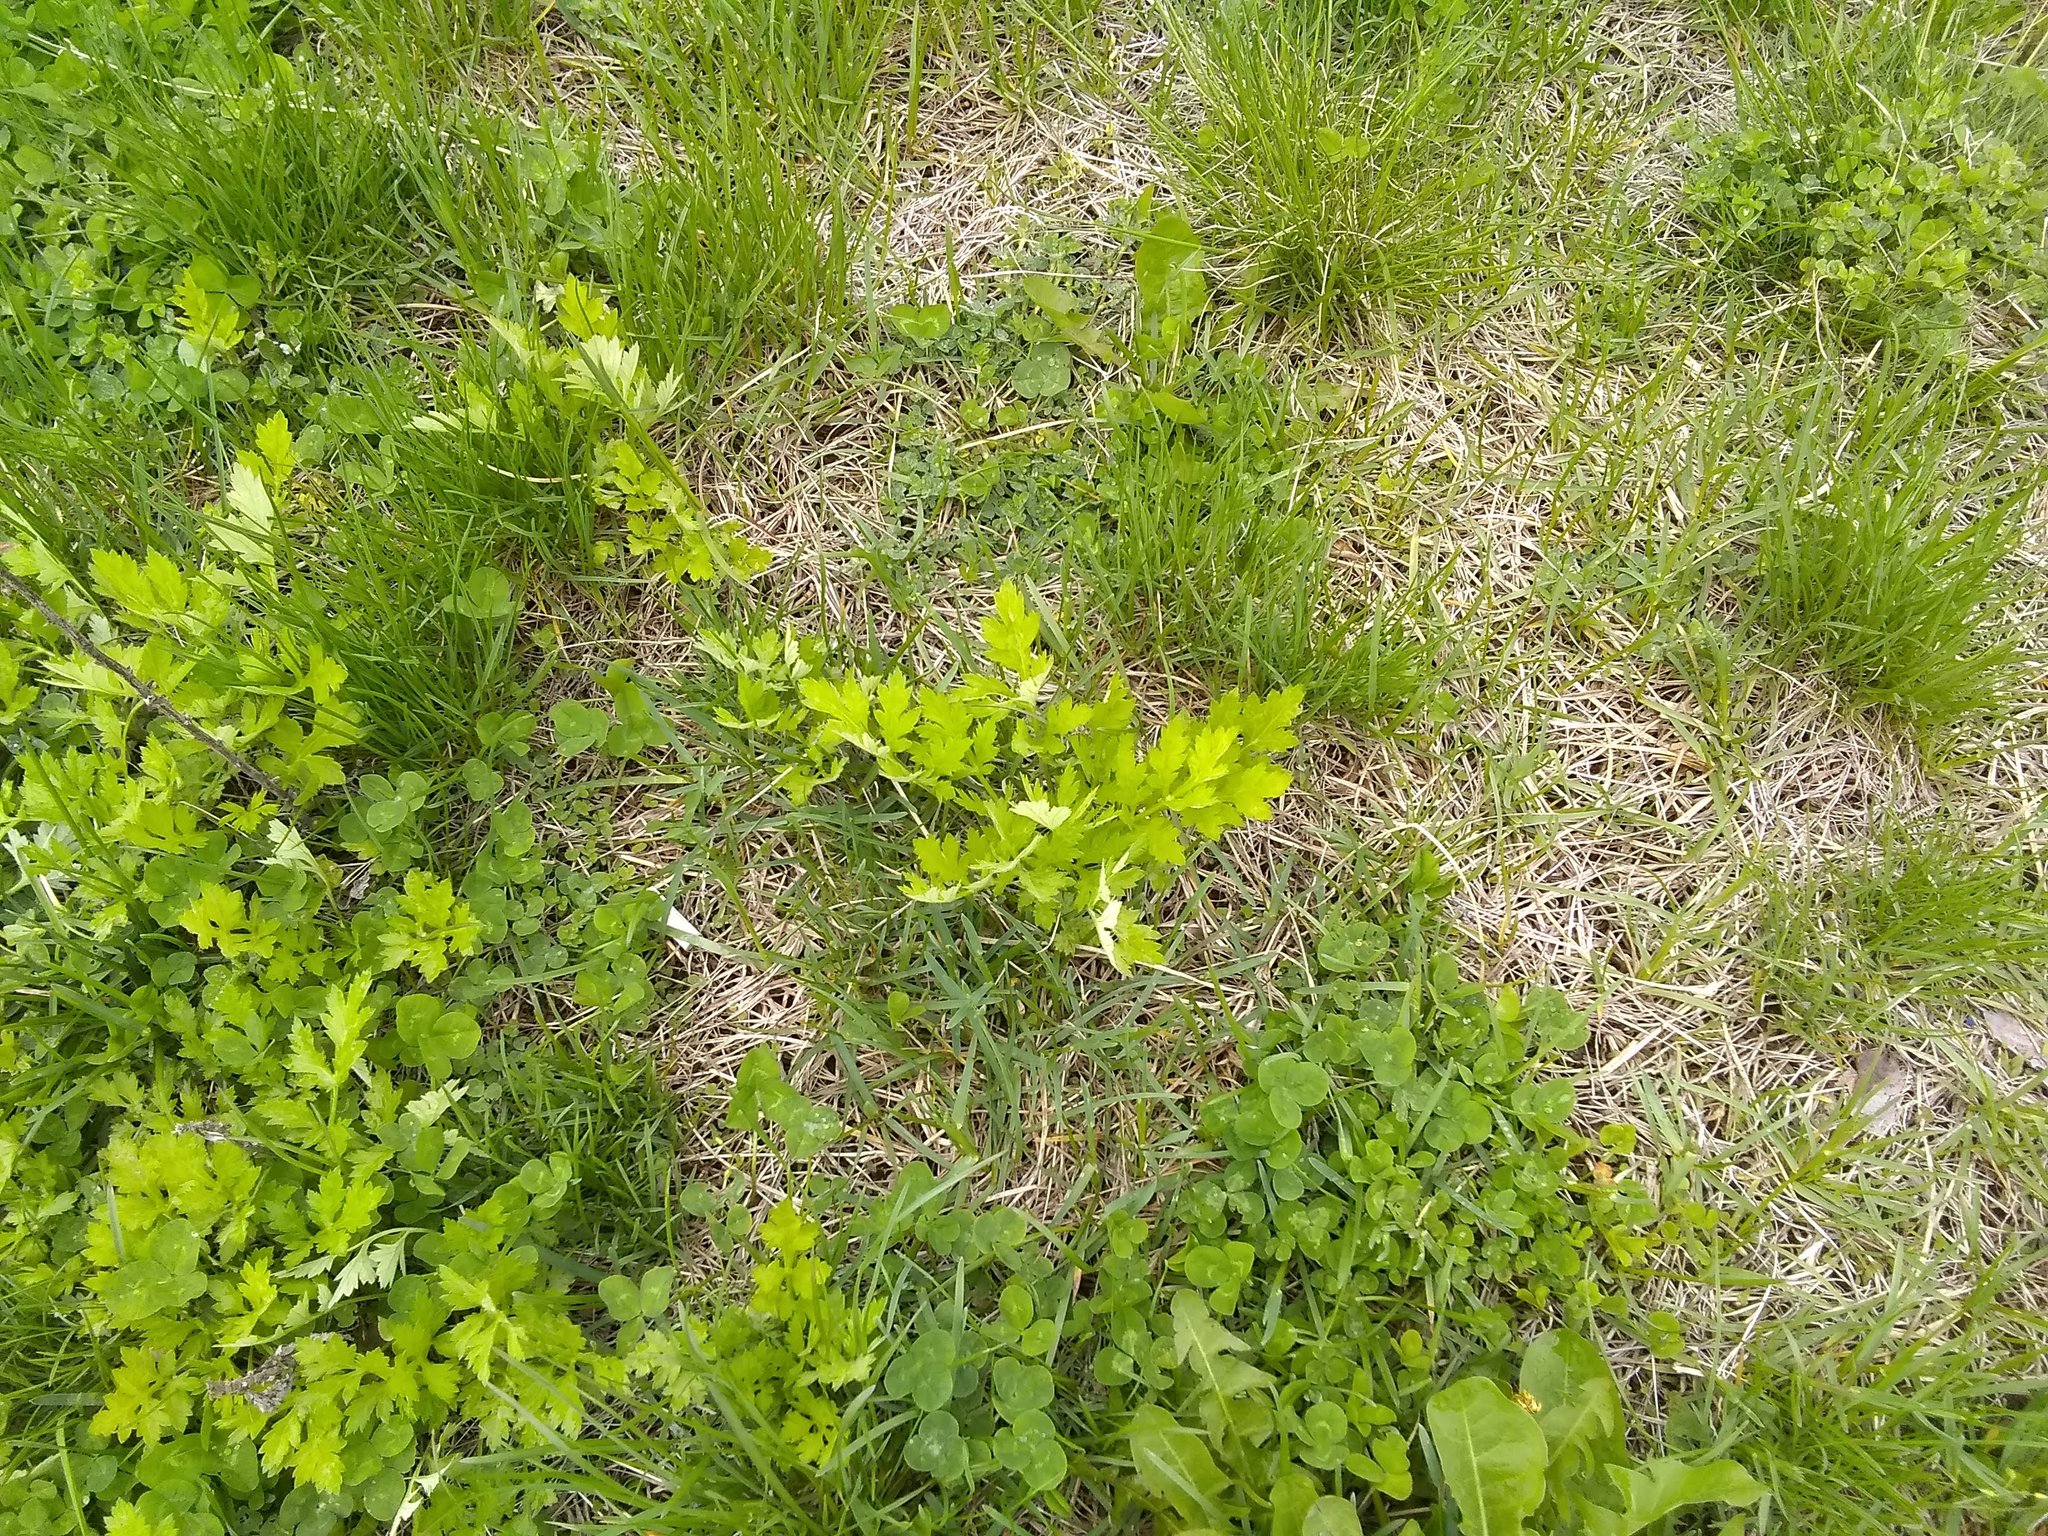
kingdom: Plantae
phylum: Tracheophyta
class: Magnoliopsida
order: Asterales
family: Asteraceae
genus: Artemisia
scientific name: Artemisia vulgaris
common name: Mugwort
